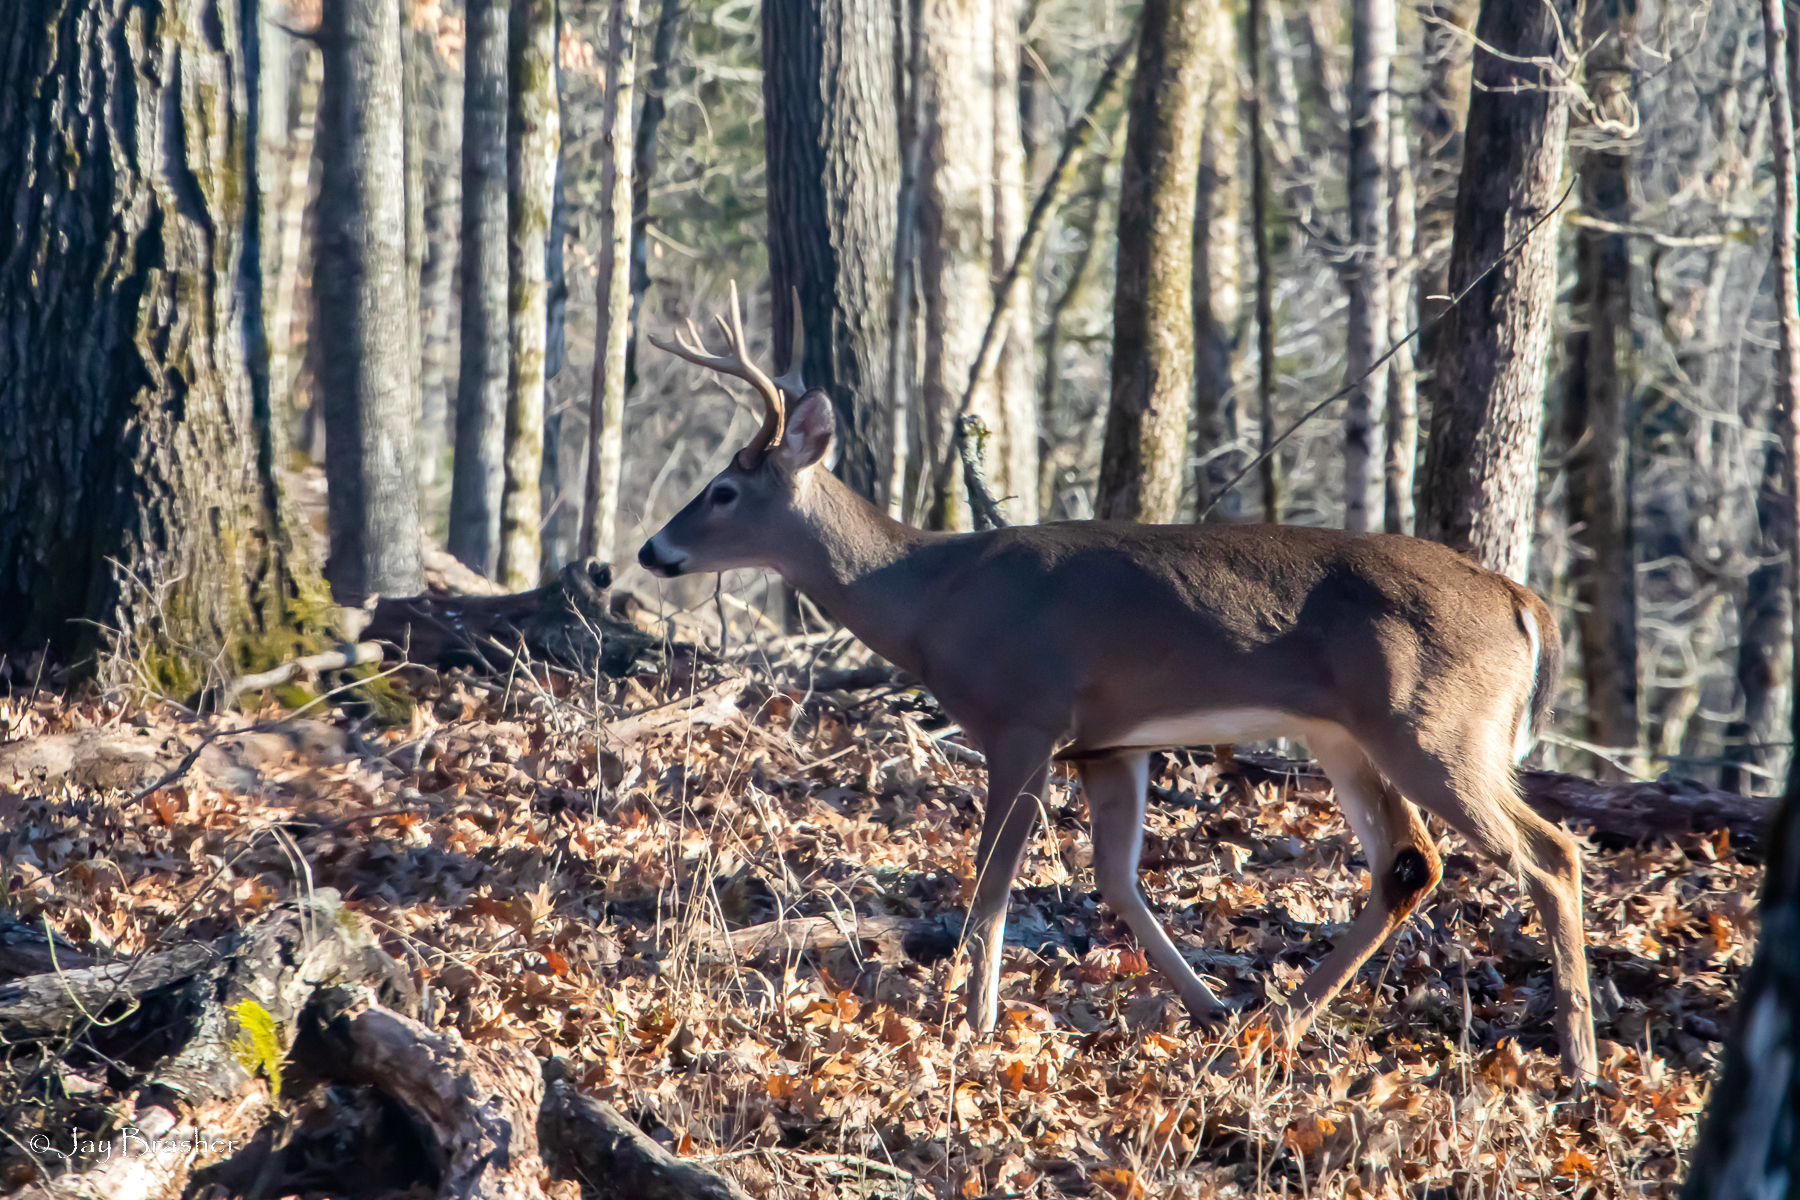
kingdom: Animalia
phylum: Chordata
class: Mammalia
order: Artiodactyla
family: Cervidae
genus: Odocoileus
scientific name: Odocoileus virginianus
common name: White-tailed deer
